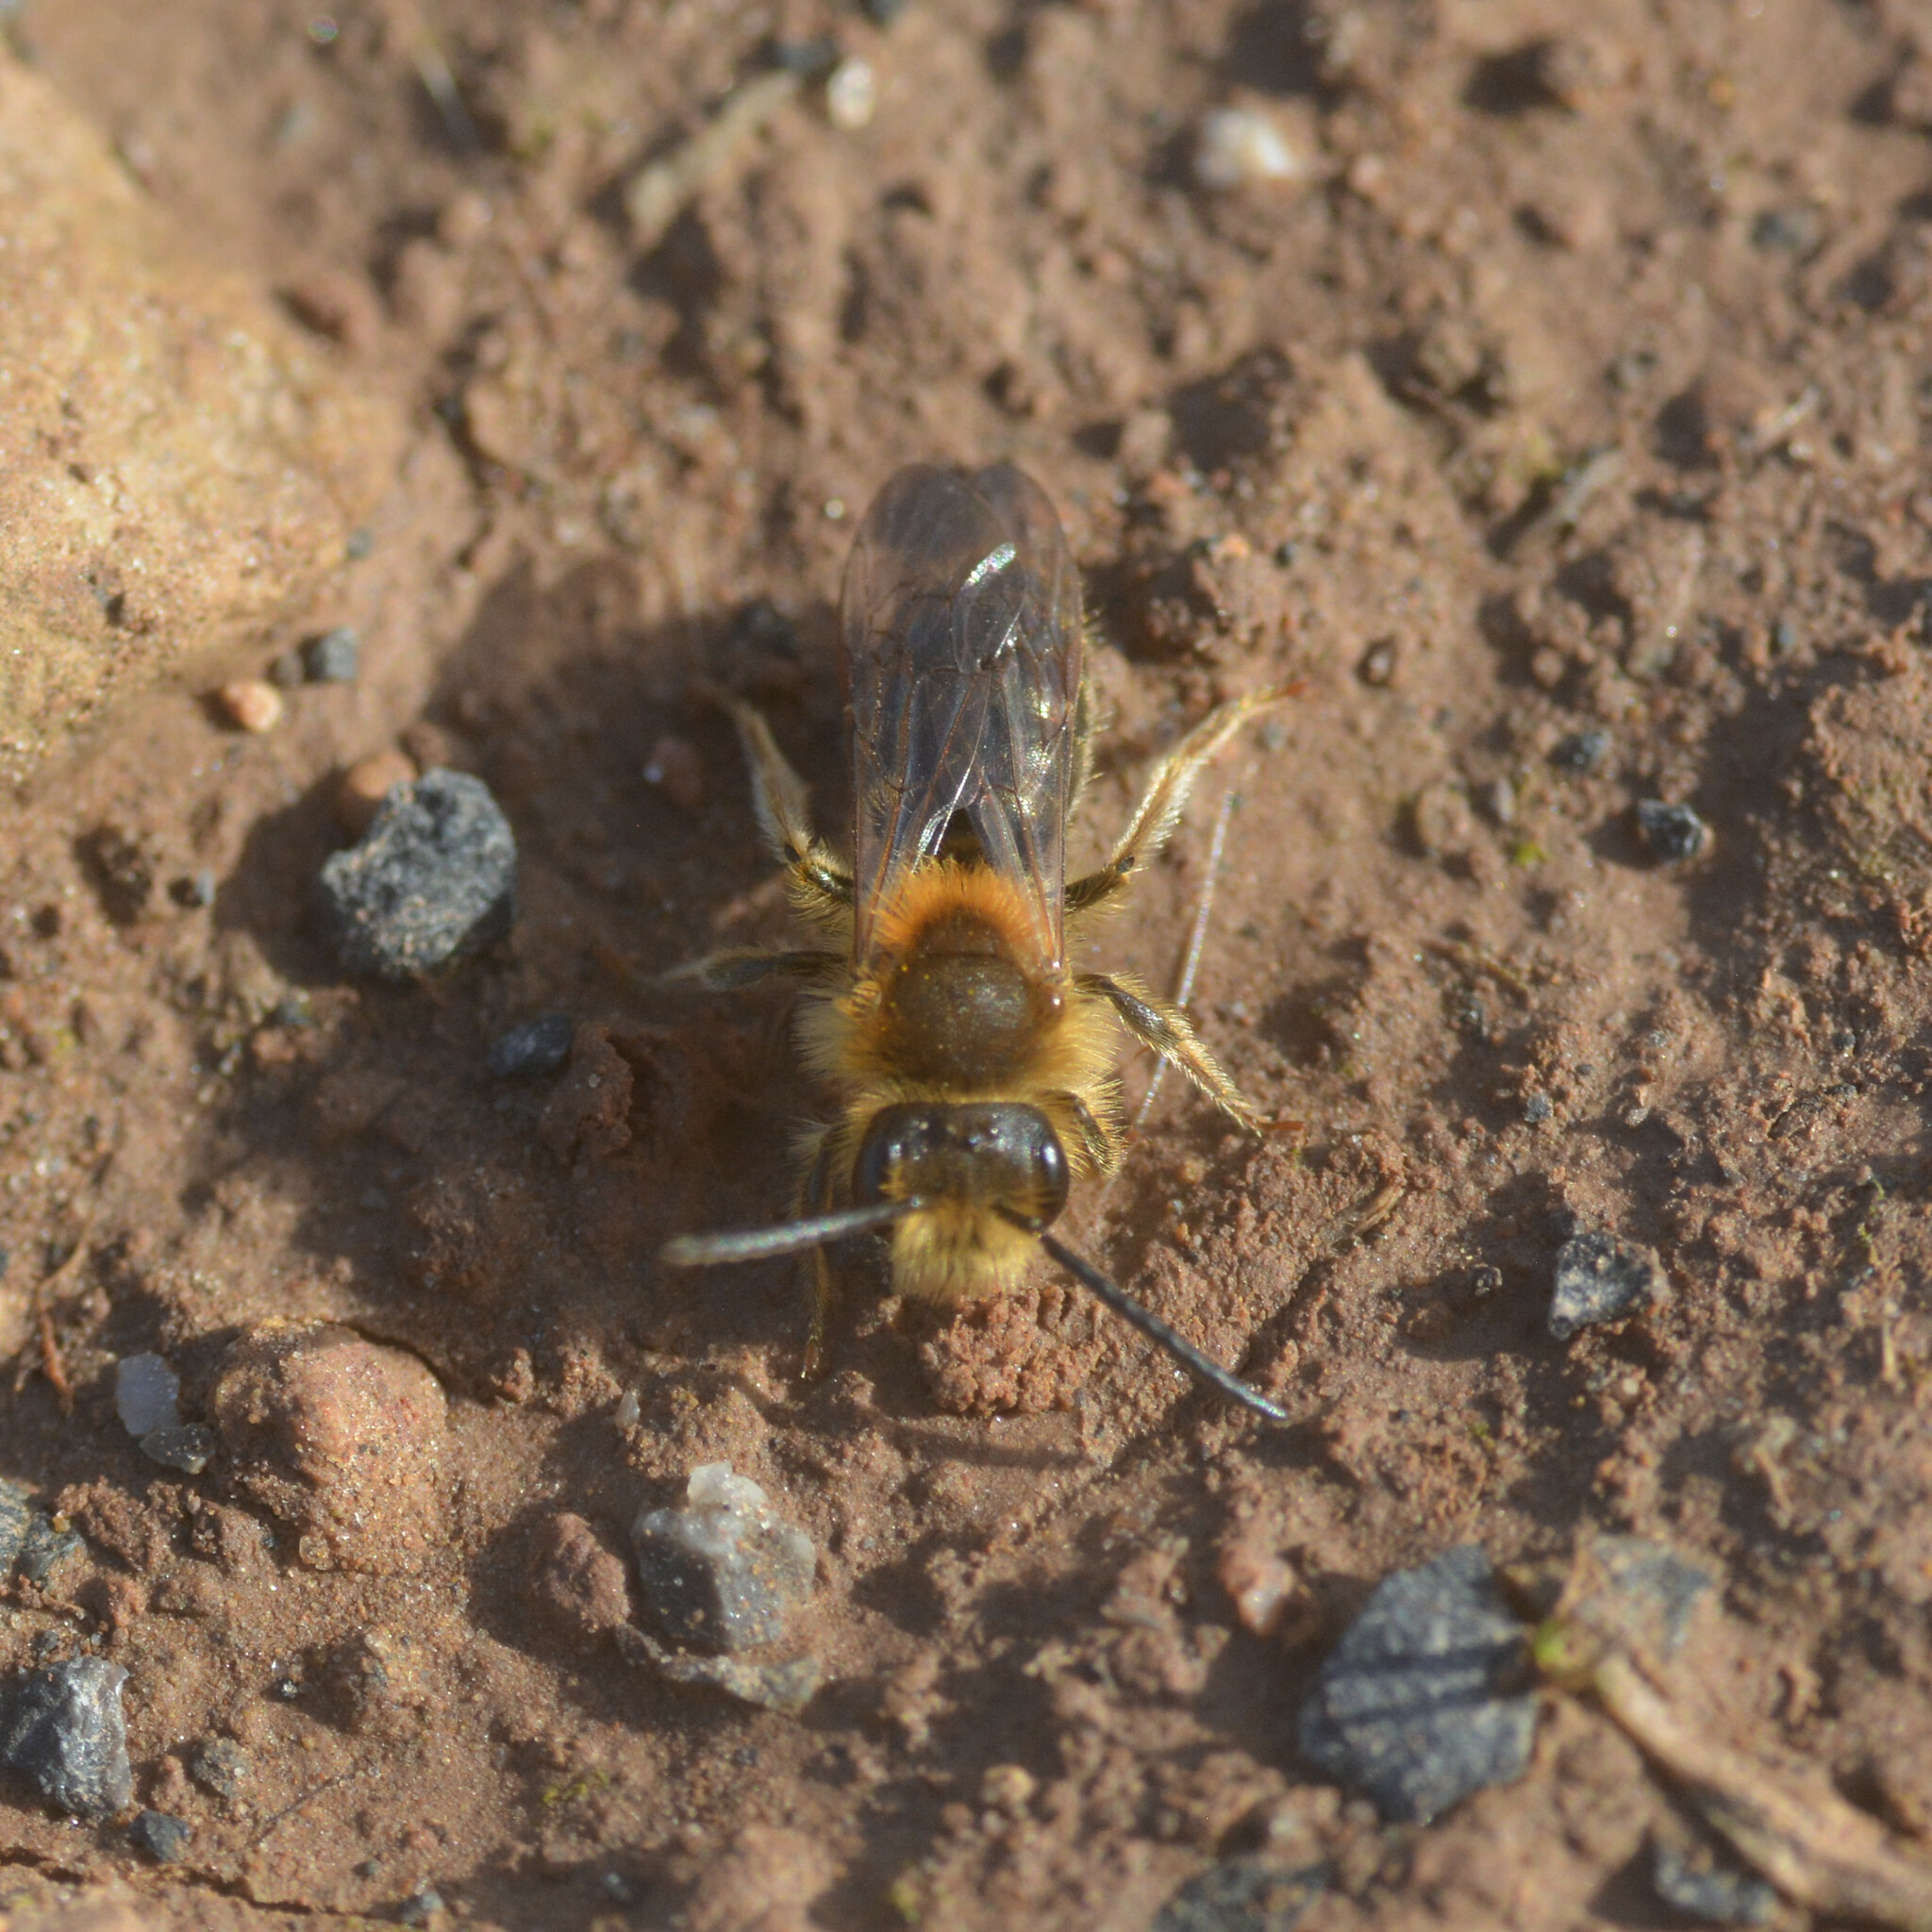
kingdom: Animalia
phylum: Arthropoda
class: Insecta
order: Hymenoptera
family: Andrenidae
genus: Andrena
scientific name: Andrena haemorrhoa
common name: Early mining bee
